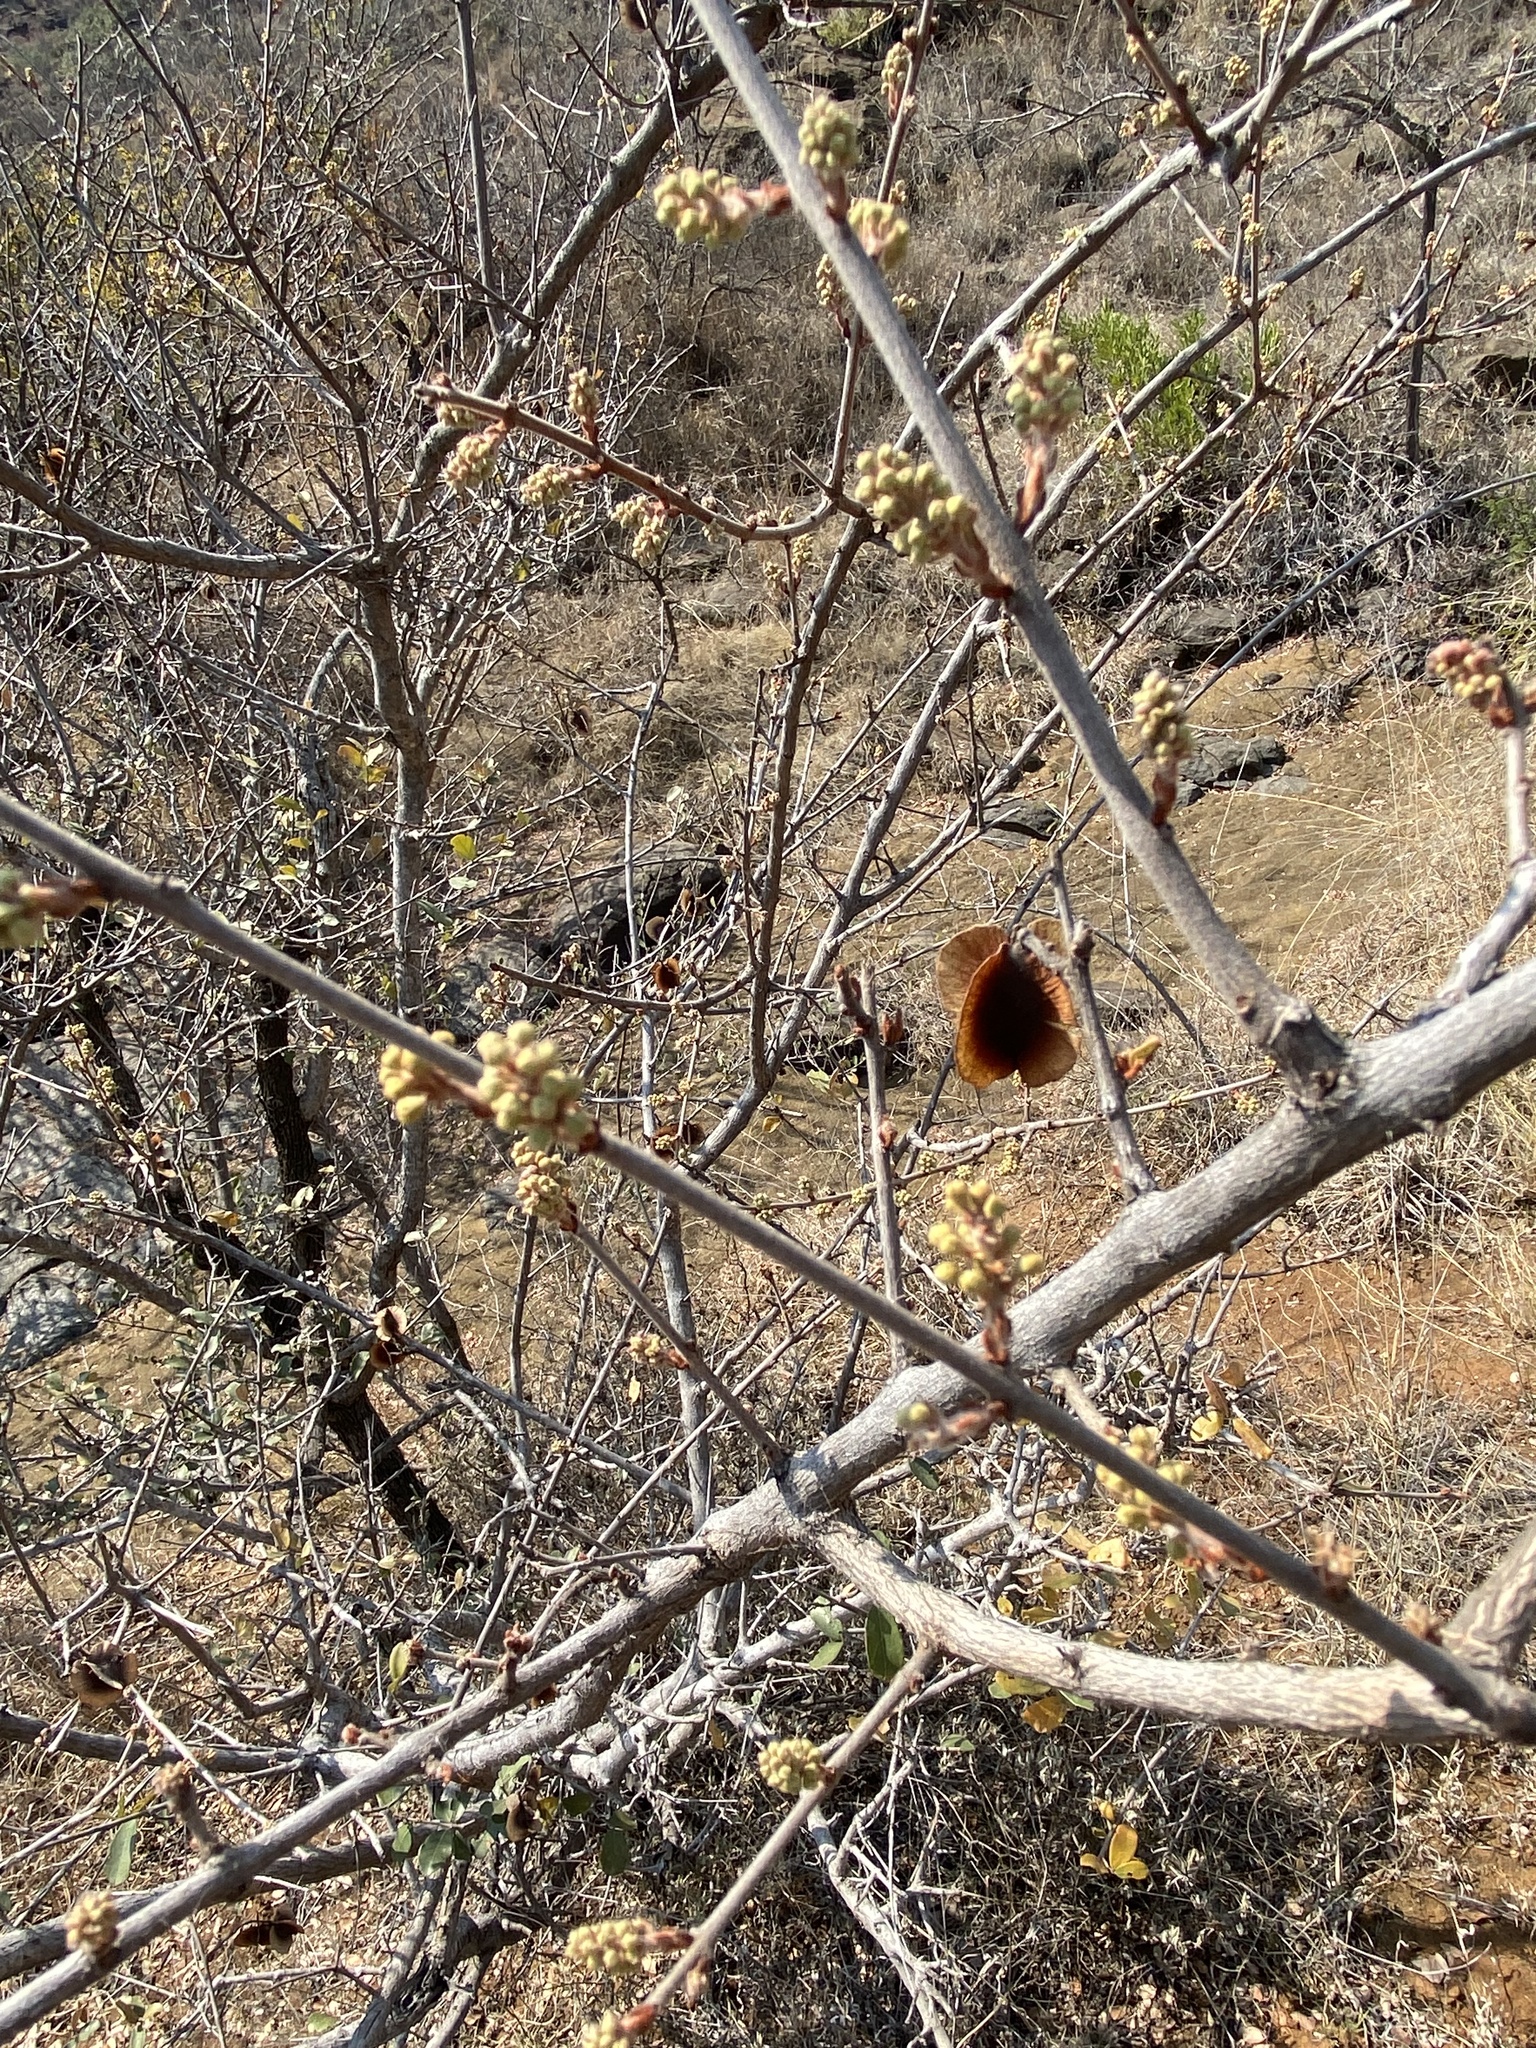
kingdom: Plantae
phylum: Tracheophyta
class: Magnoliopsida
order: Myrtales
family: Combretaceae
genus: Combretum
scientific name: Combretum hereroense
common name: Russet bushwillow
